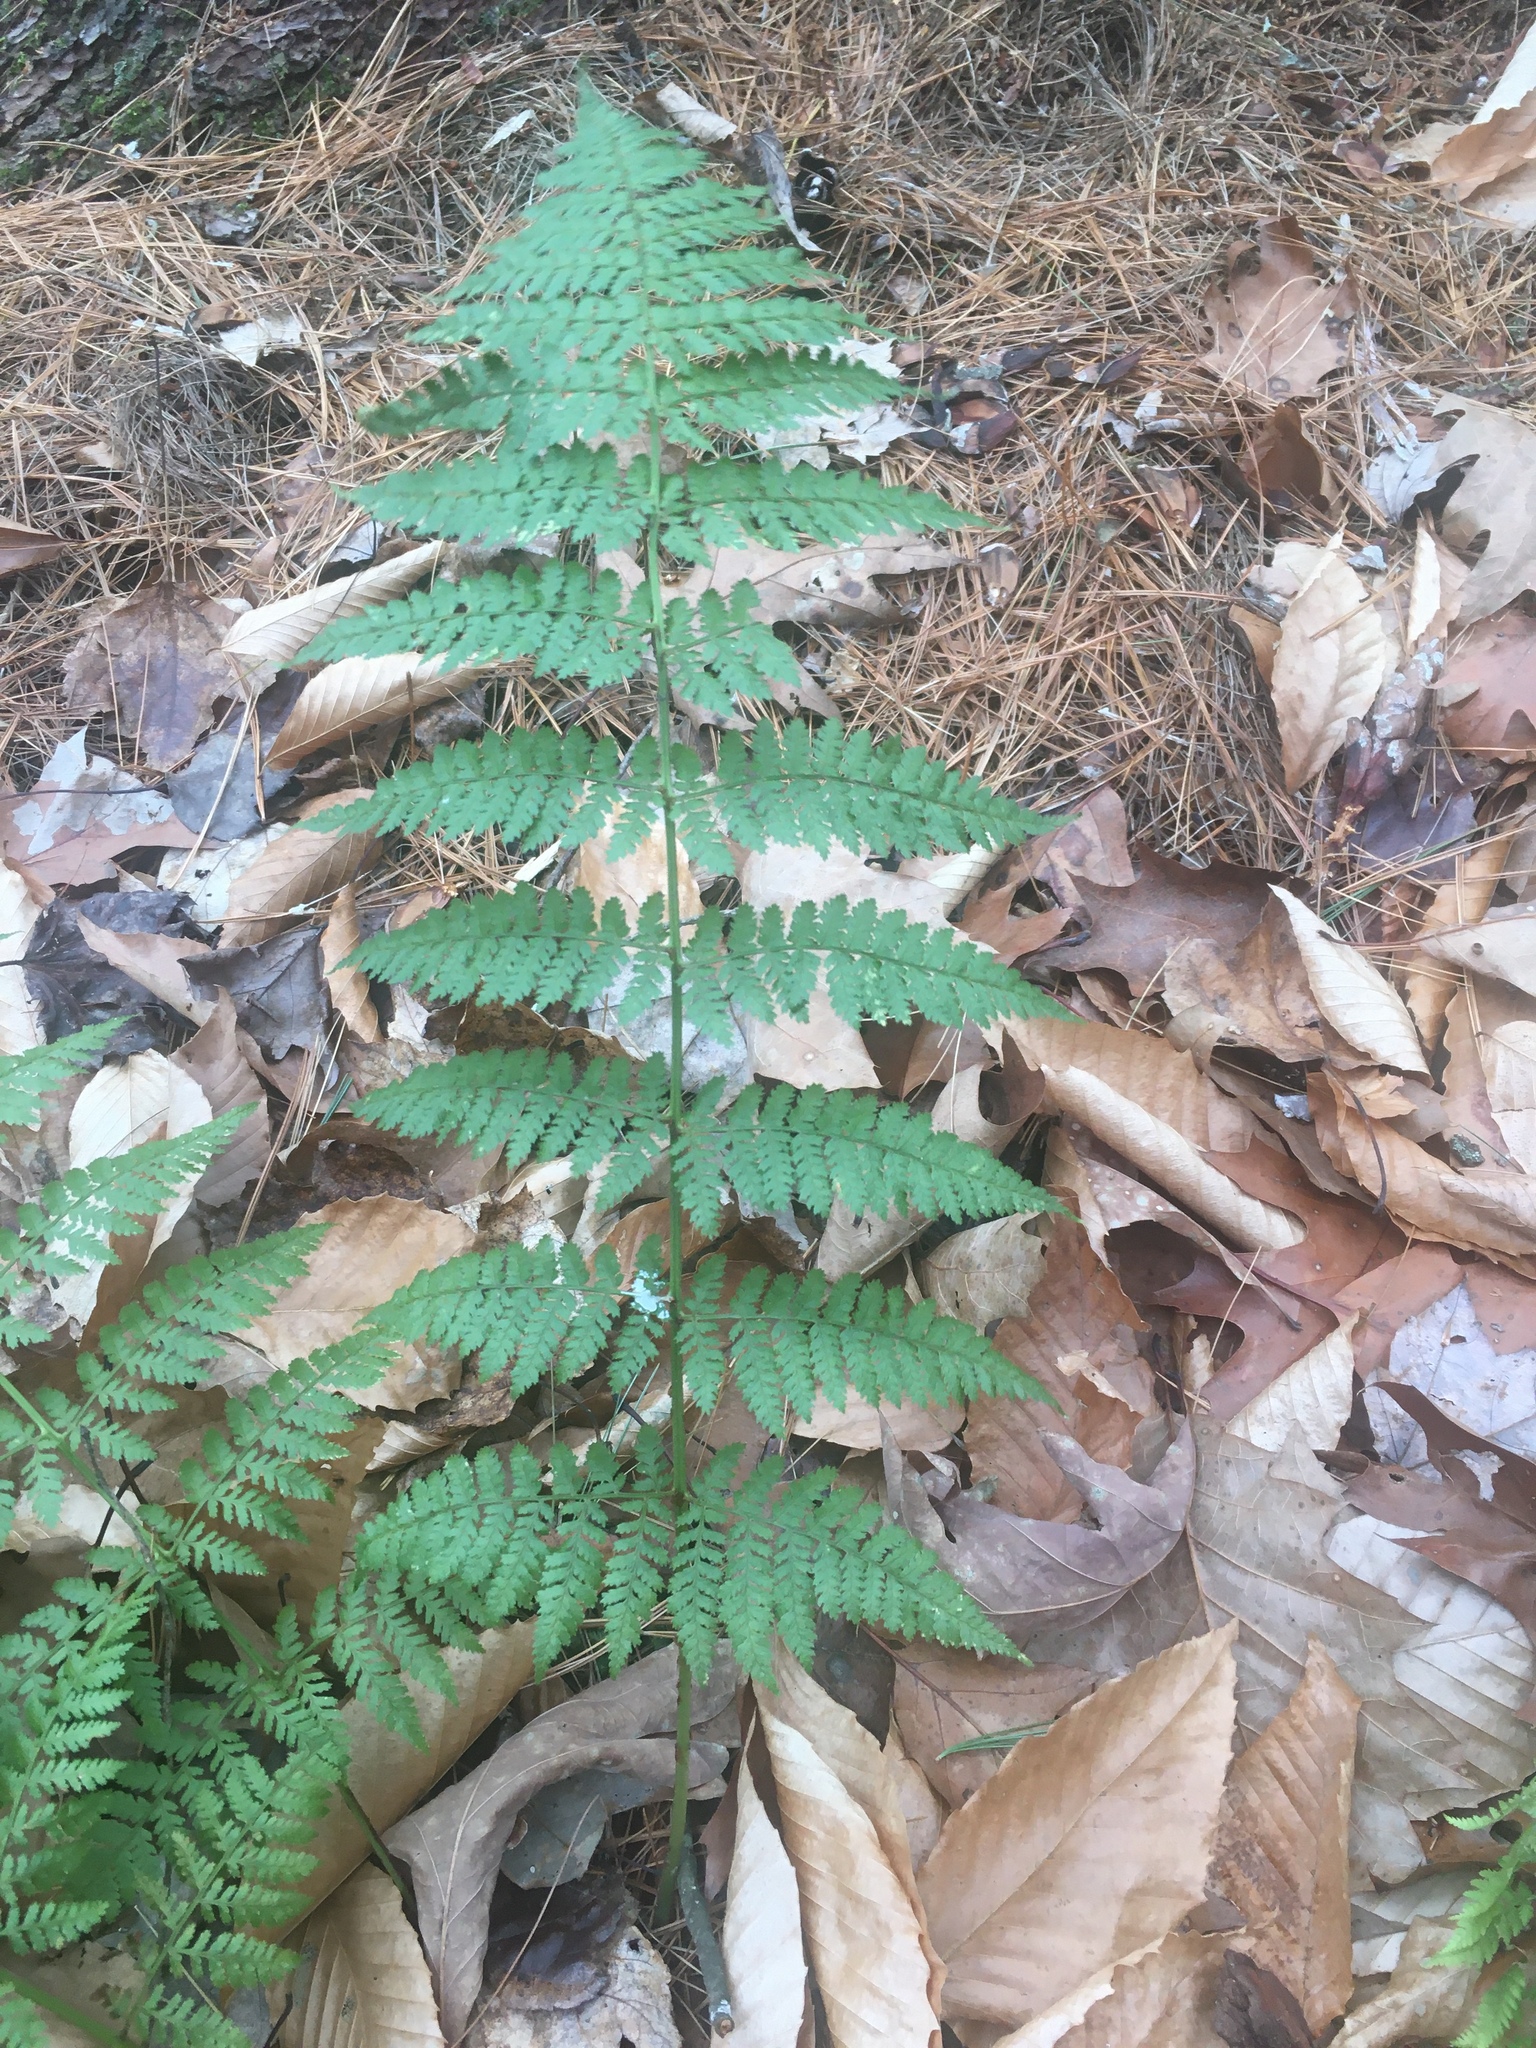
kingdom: Plantae
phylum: Tracheophyta
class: Polypodiopsida
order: Polypodiales
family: Dryopteridaceae
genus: Dryopteris
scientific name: Dryopteris intermedia
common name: Evergreen wood fern
